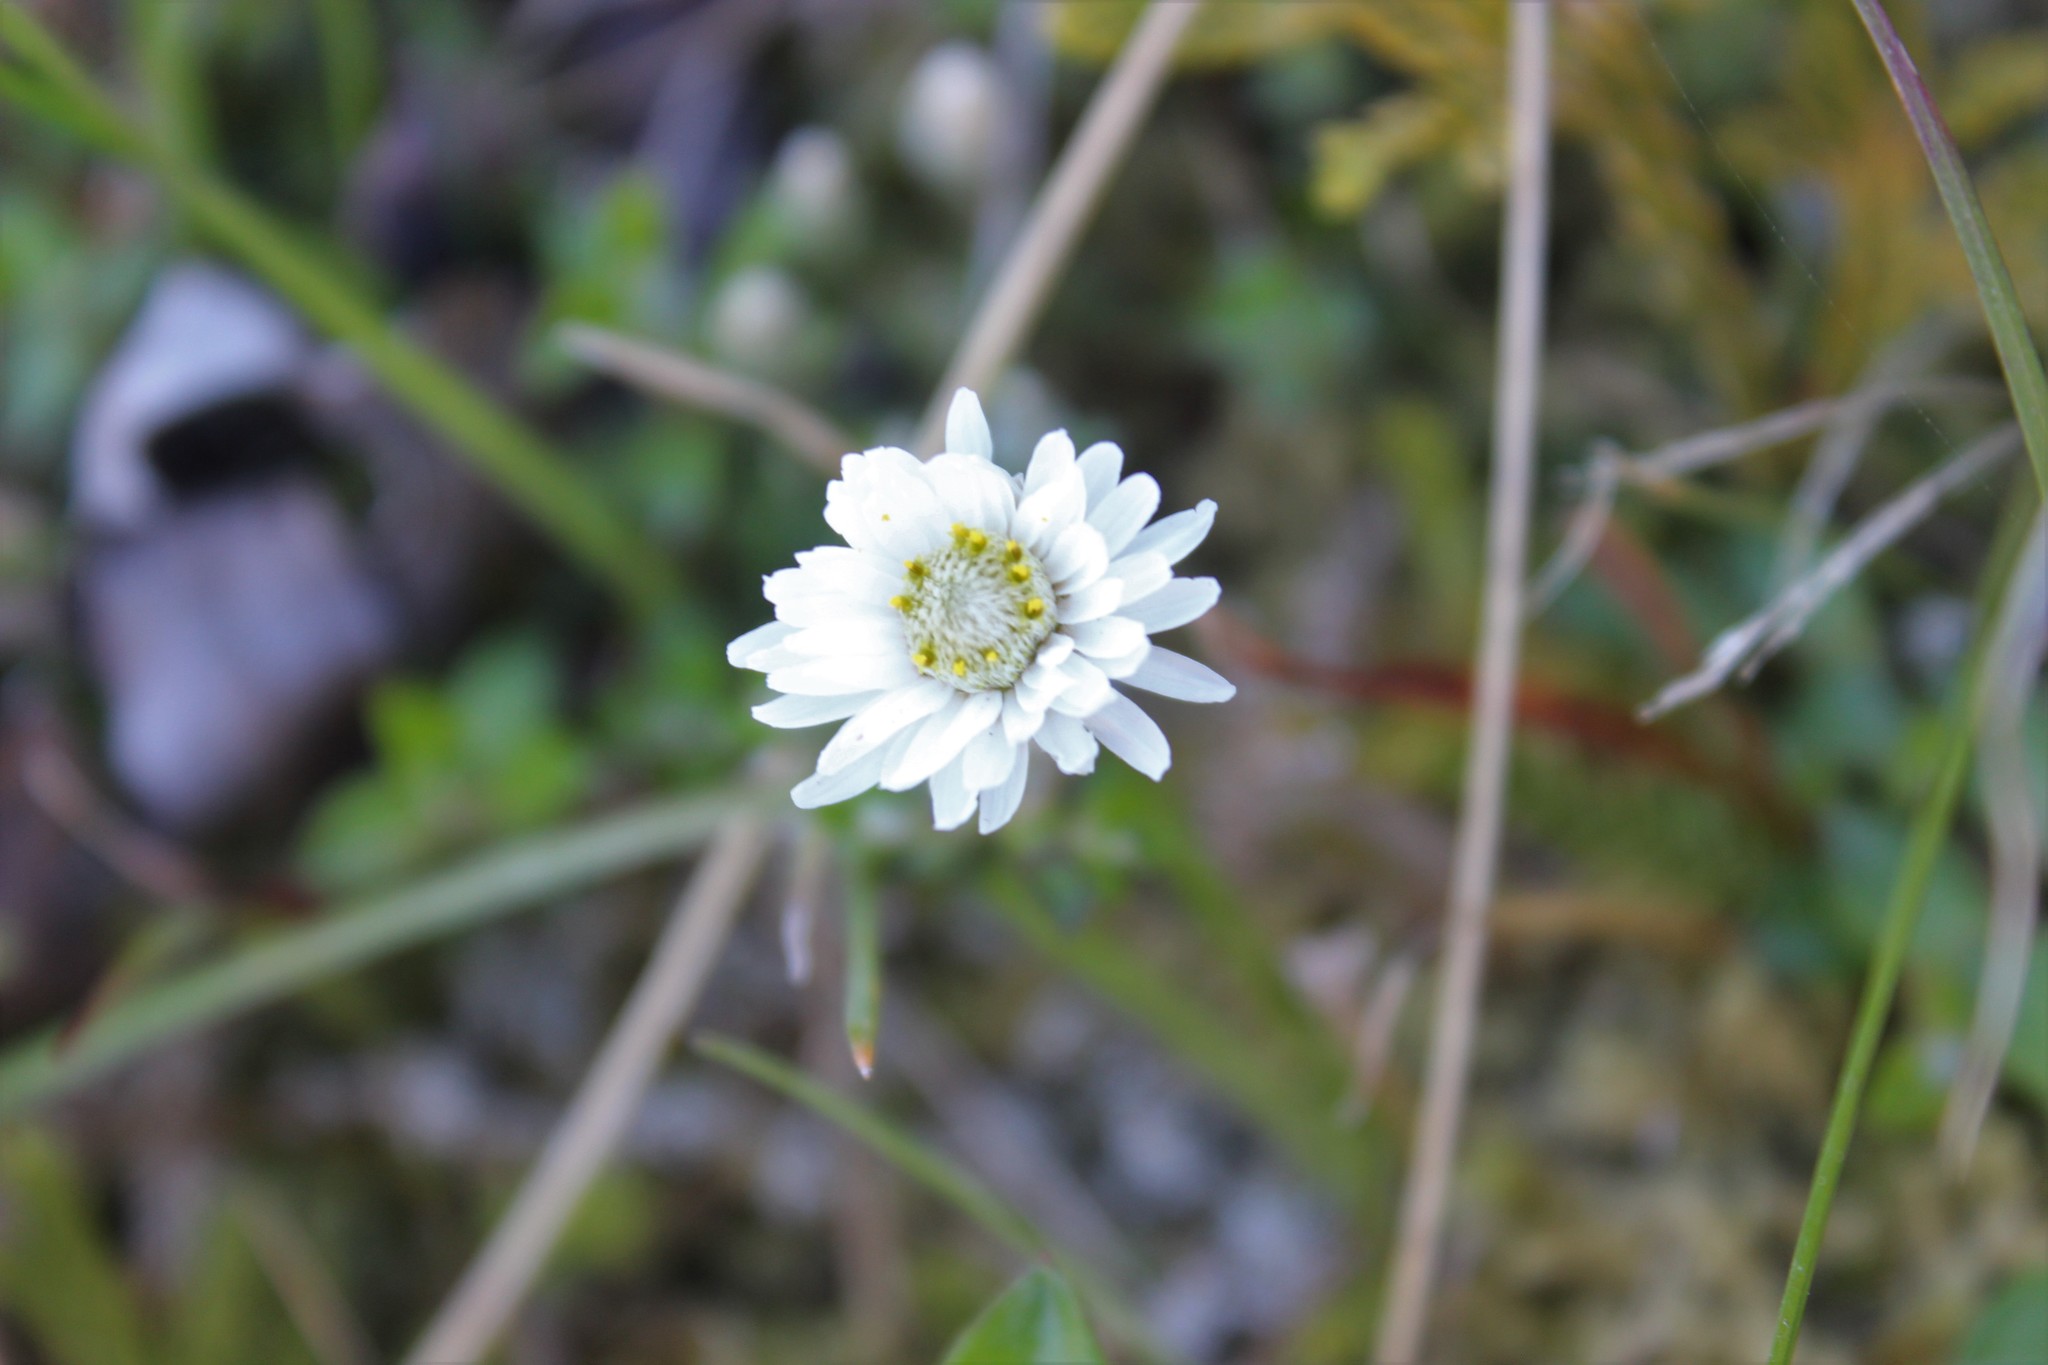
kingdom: Plantae
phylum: Tracheophyta
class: Magnoliopsida
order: Asterales
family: Asteraceae
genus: Anaphalioides
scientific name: Anaphalioides bellidioides
